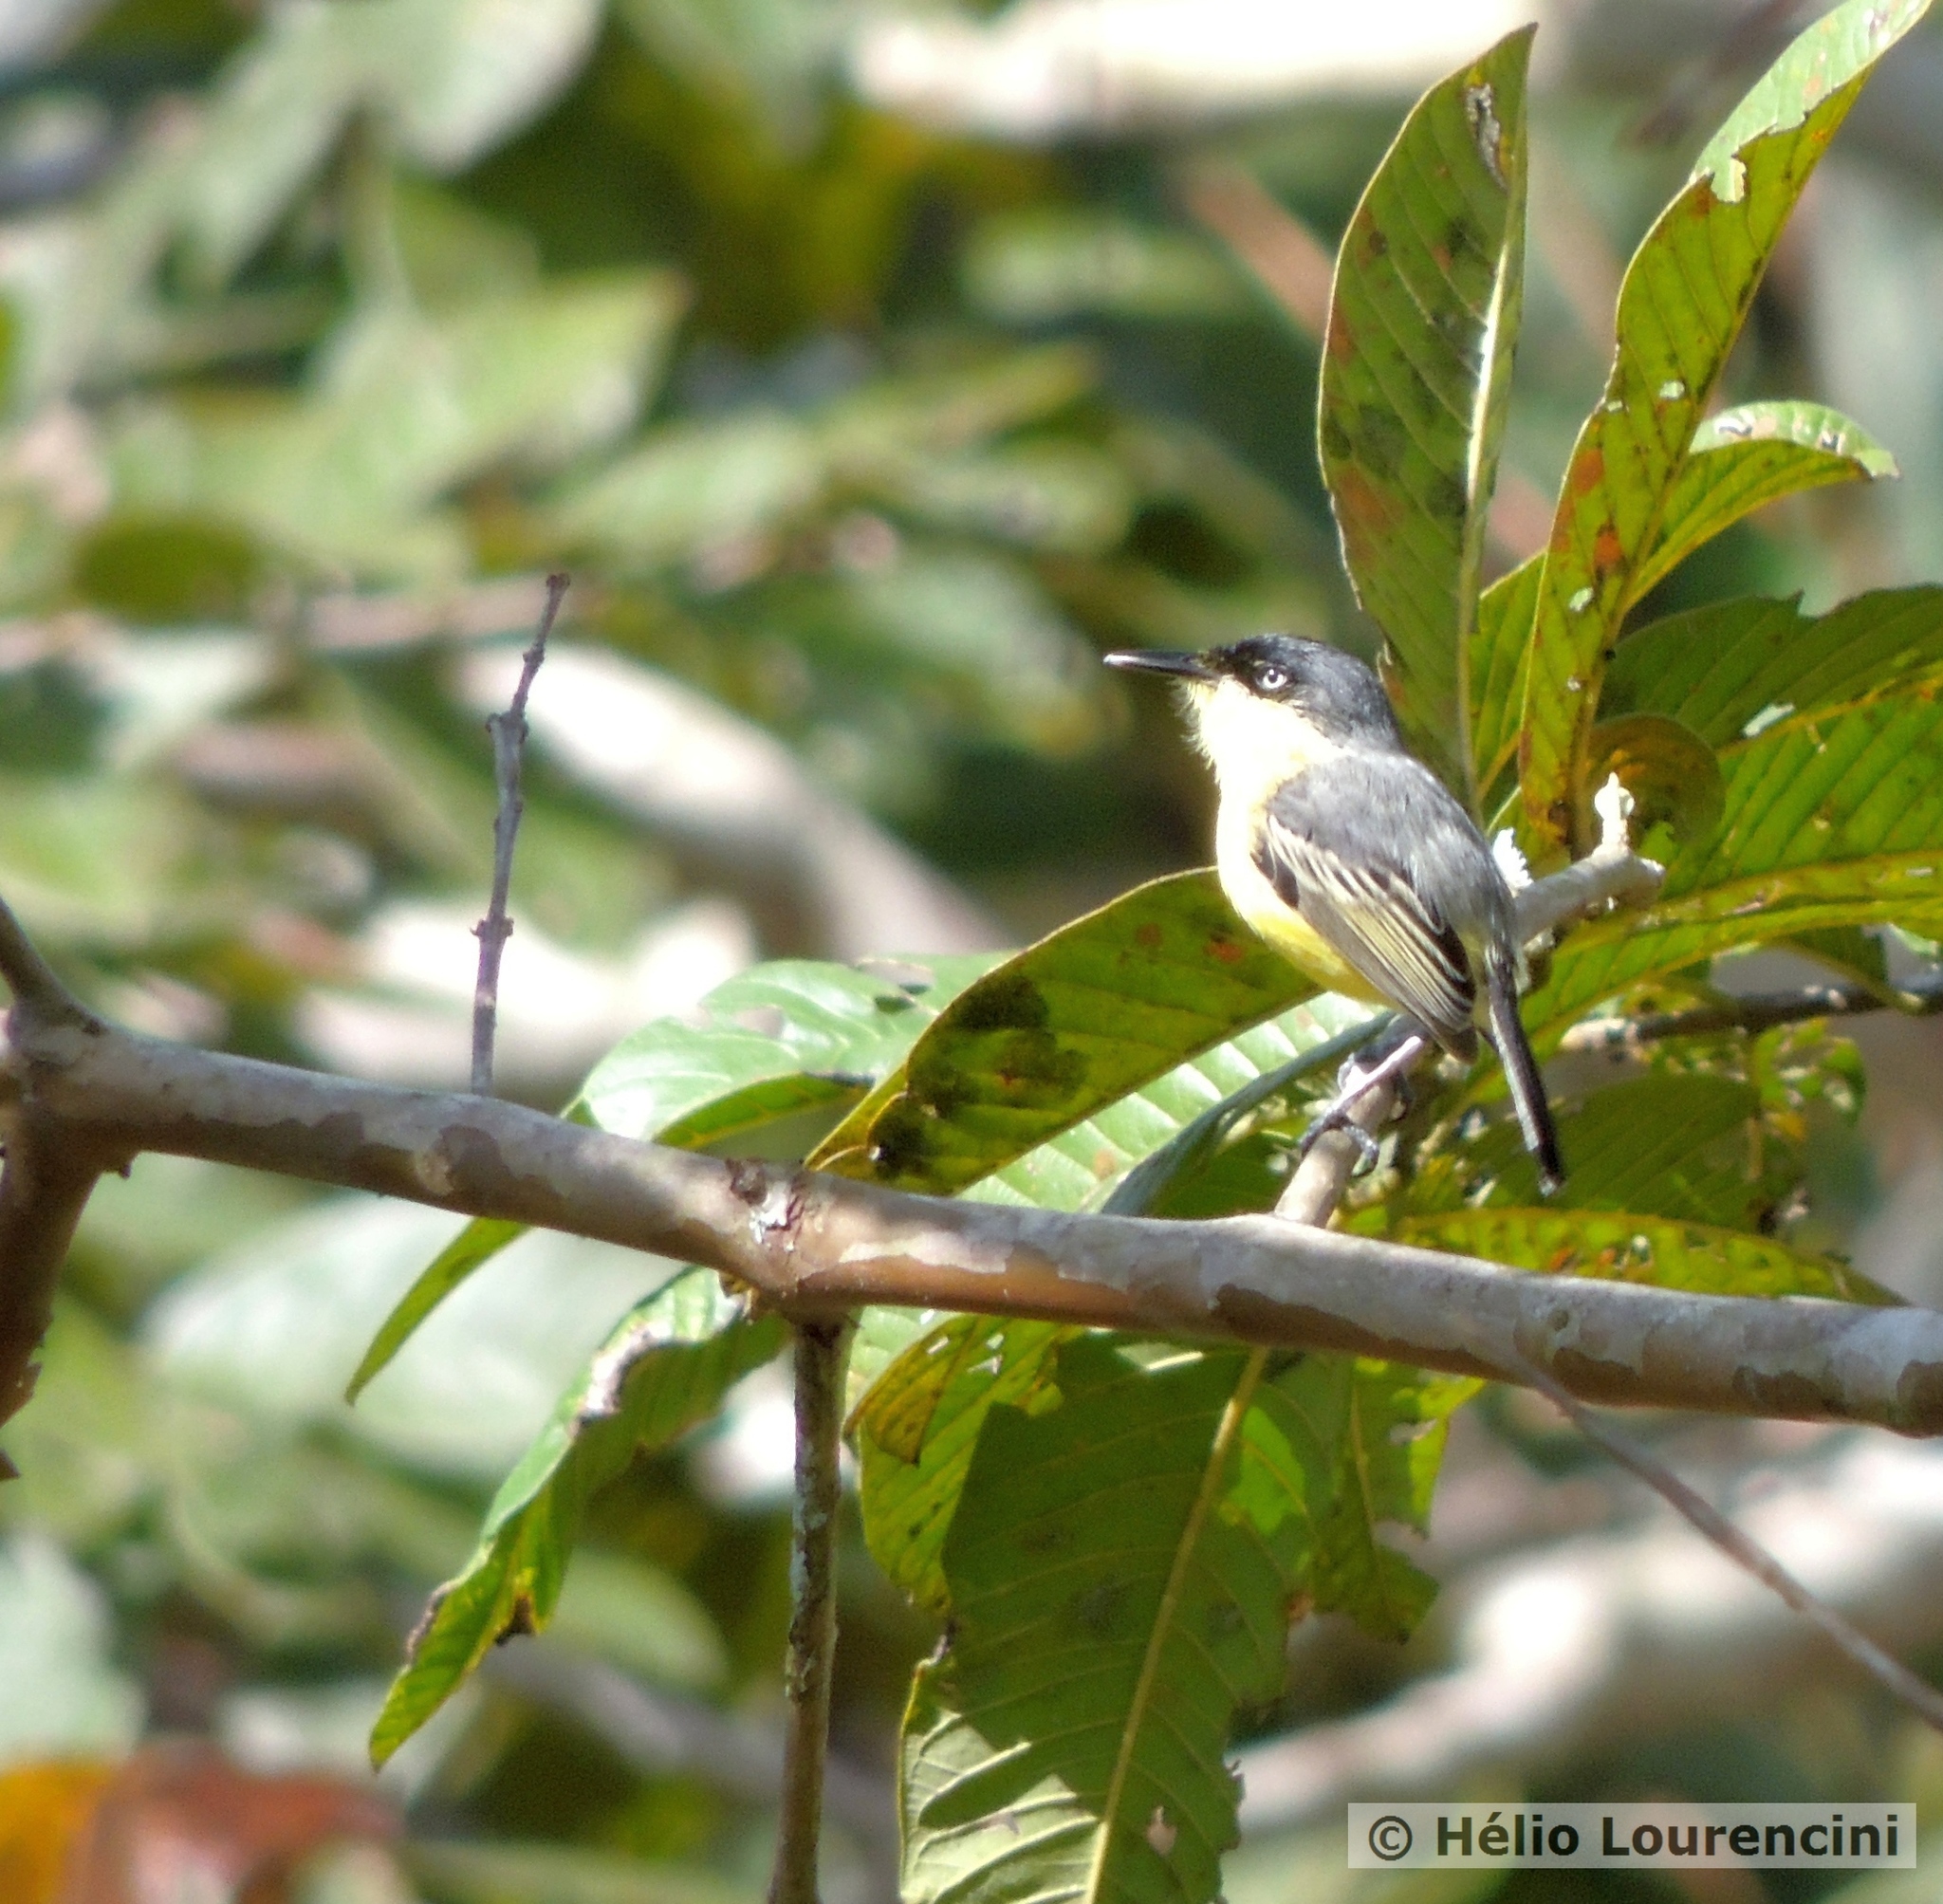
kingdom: Animalia
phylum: Chordata
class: Aves
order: Passeriformes
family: Tyrannidae
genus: Todirostrum
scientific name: Todirostrum cinereum
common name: Common tody-flycatcher
